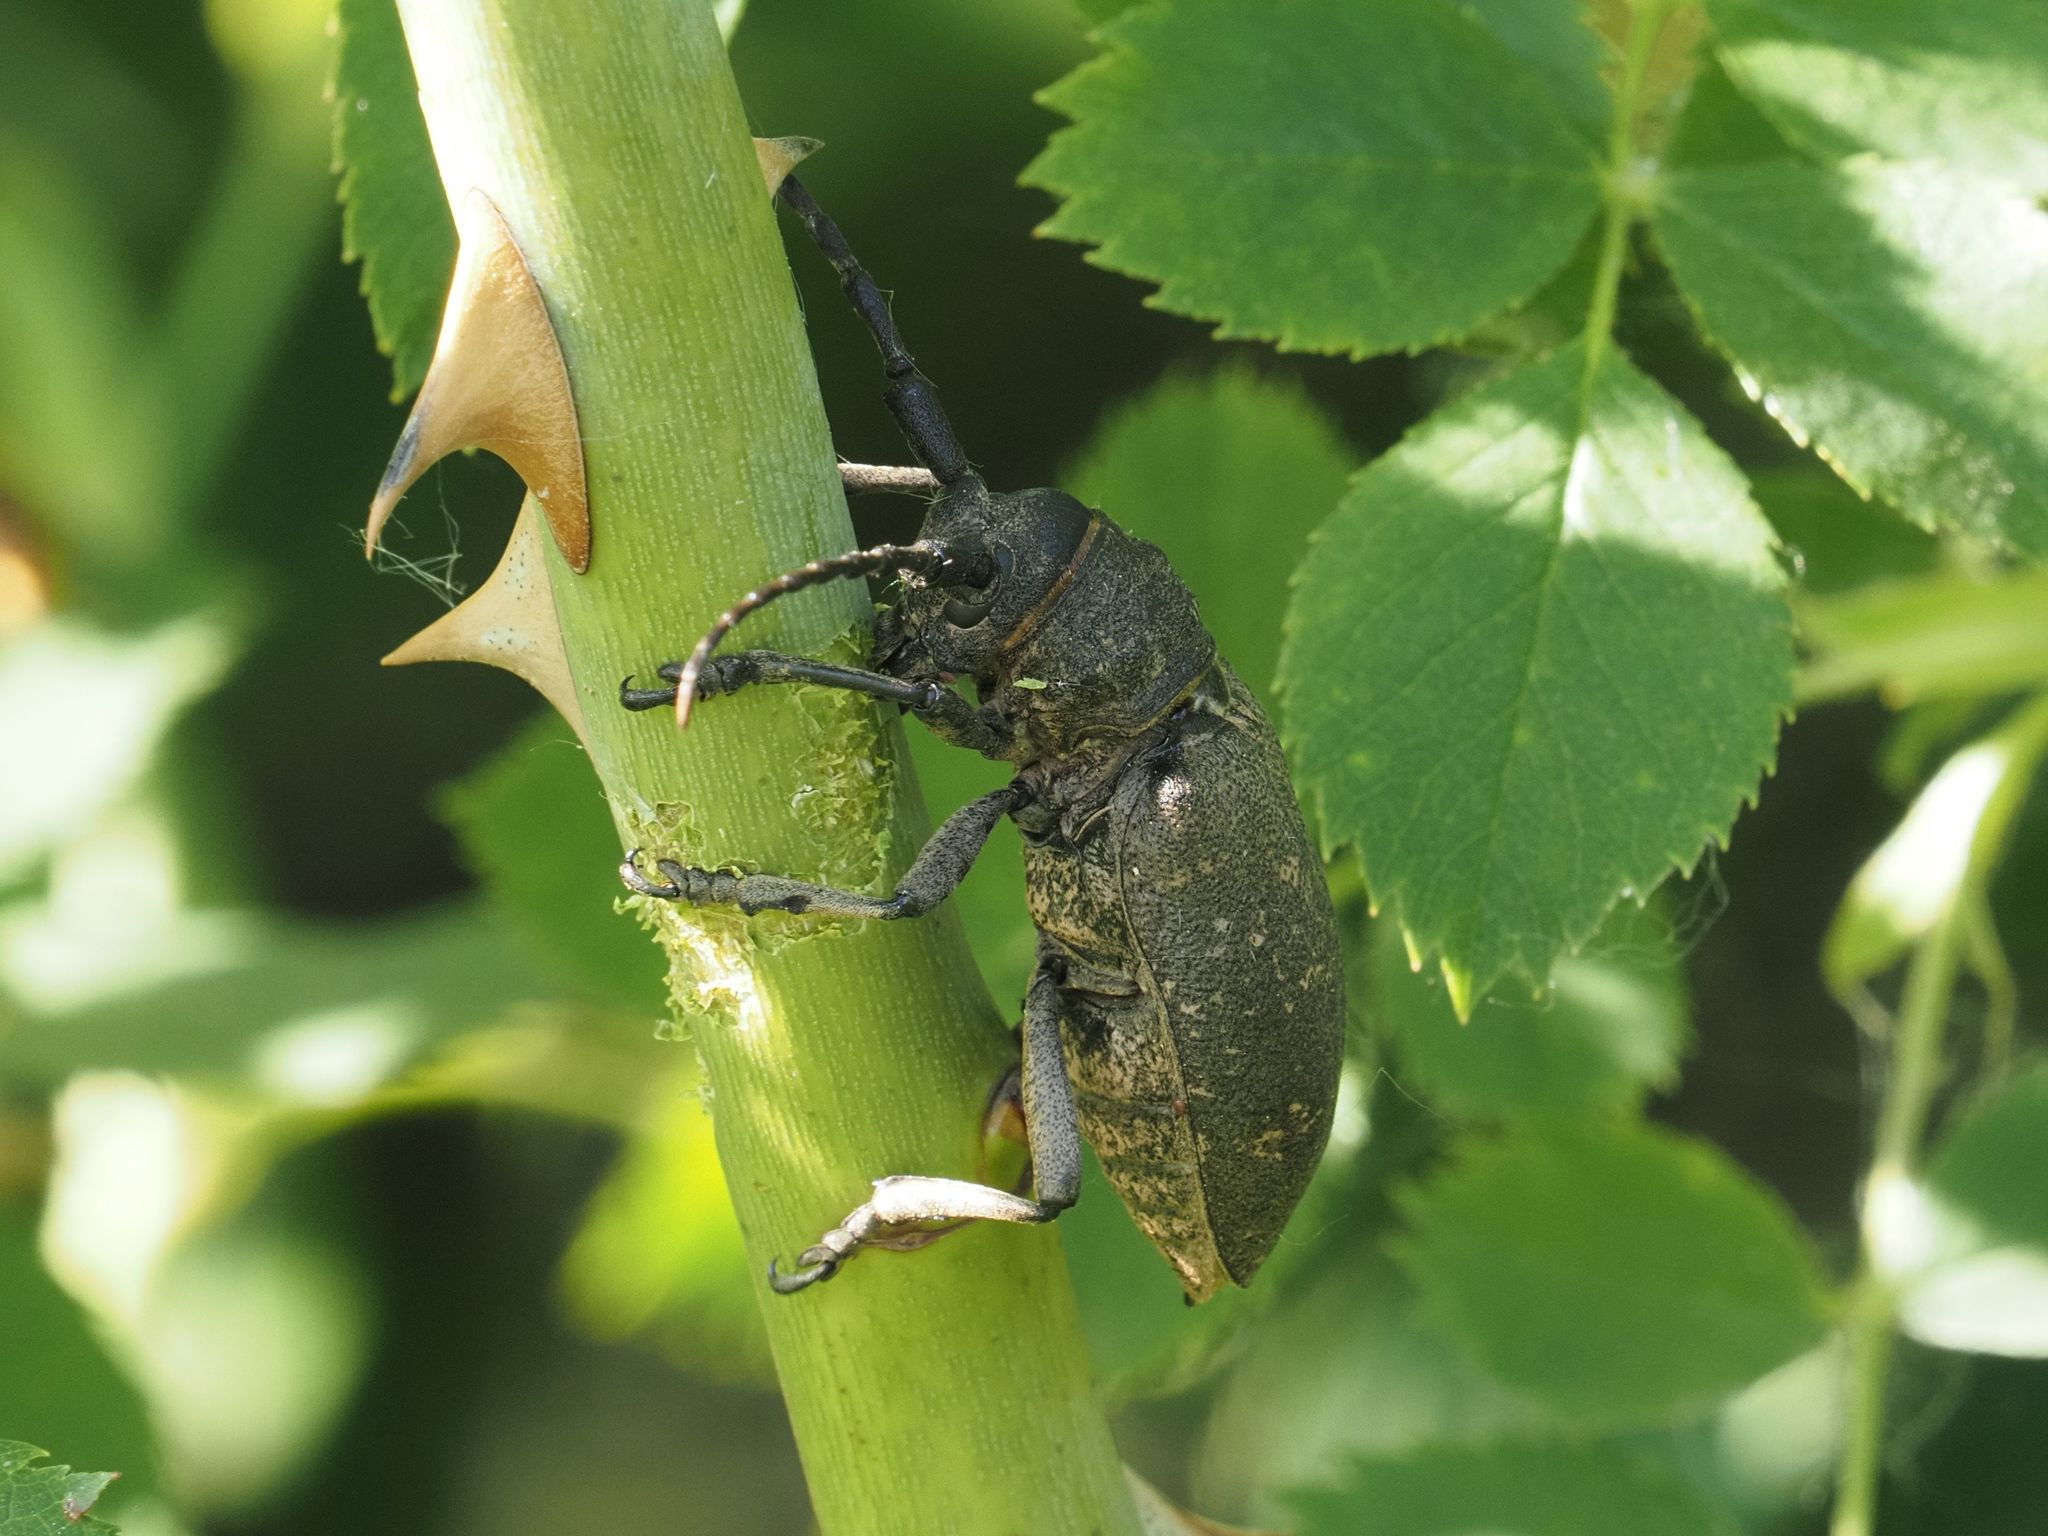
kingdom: Animalia
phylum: Arthropoda
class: Insecta
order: Coleoptera
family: Cerambycidae
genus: Lamia
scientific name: Lamia textor
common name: Weaver beetle
